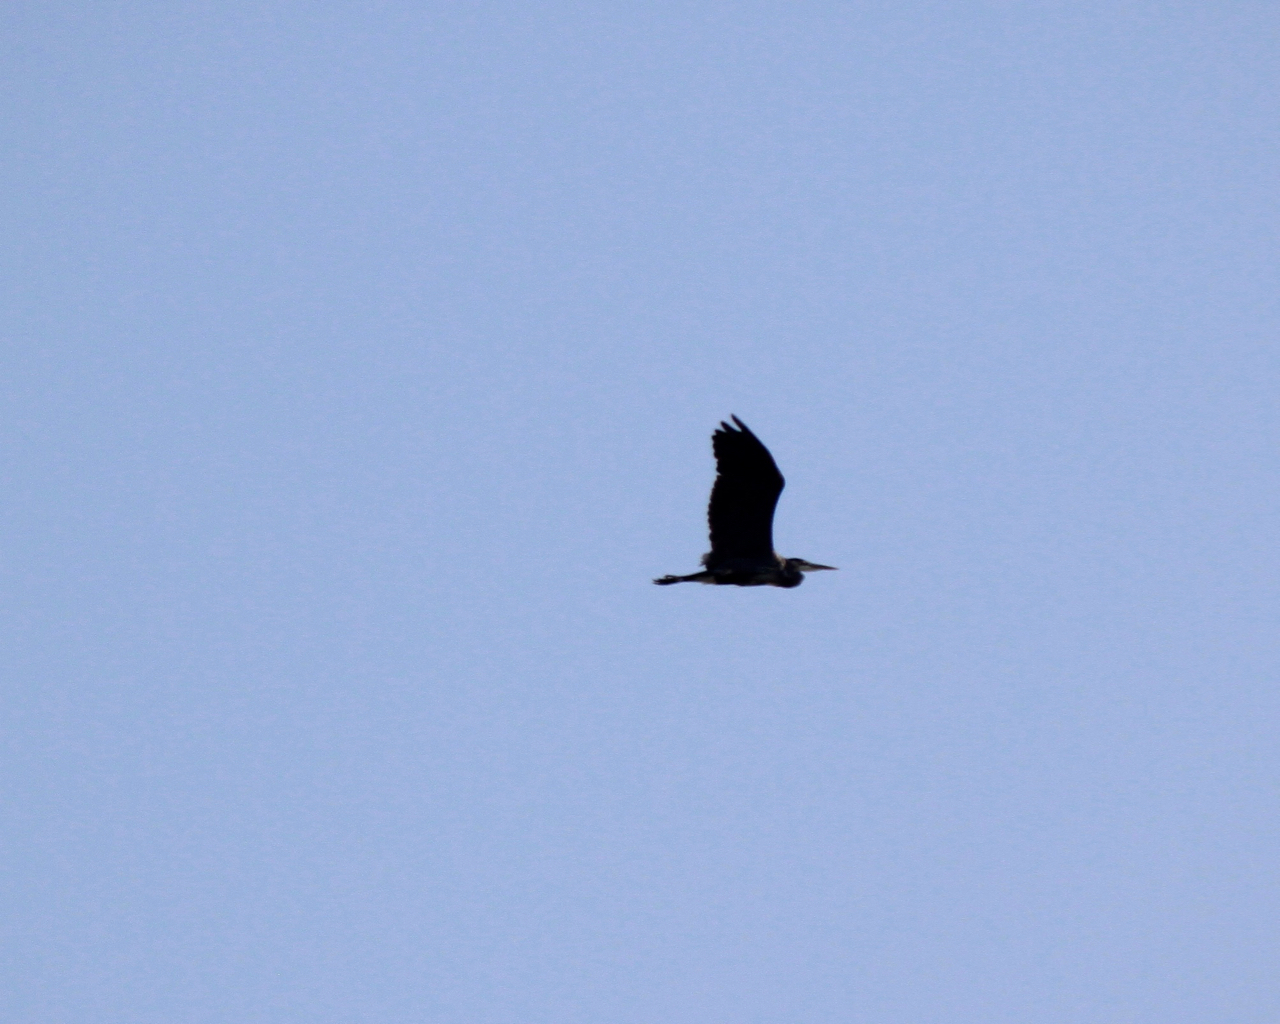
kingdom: Animalia
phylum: Chordata
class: Aves
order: Pelecaniformes
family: Ardeidae
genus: Ardea
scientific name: Ardea herodias
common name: Great blue heron
